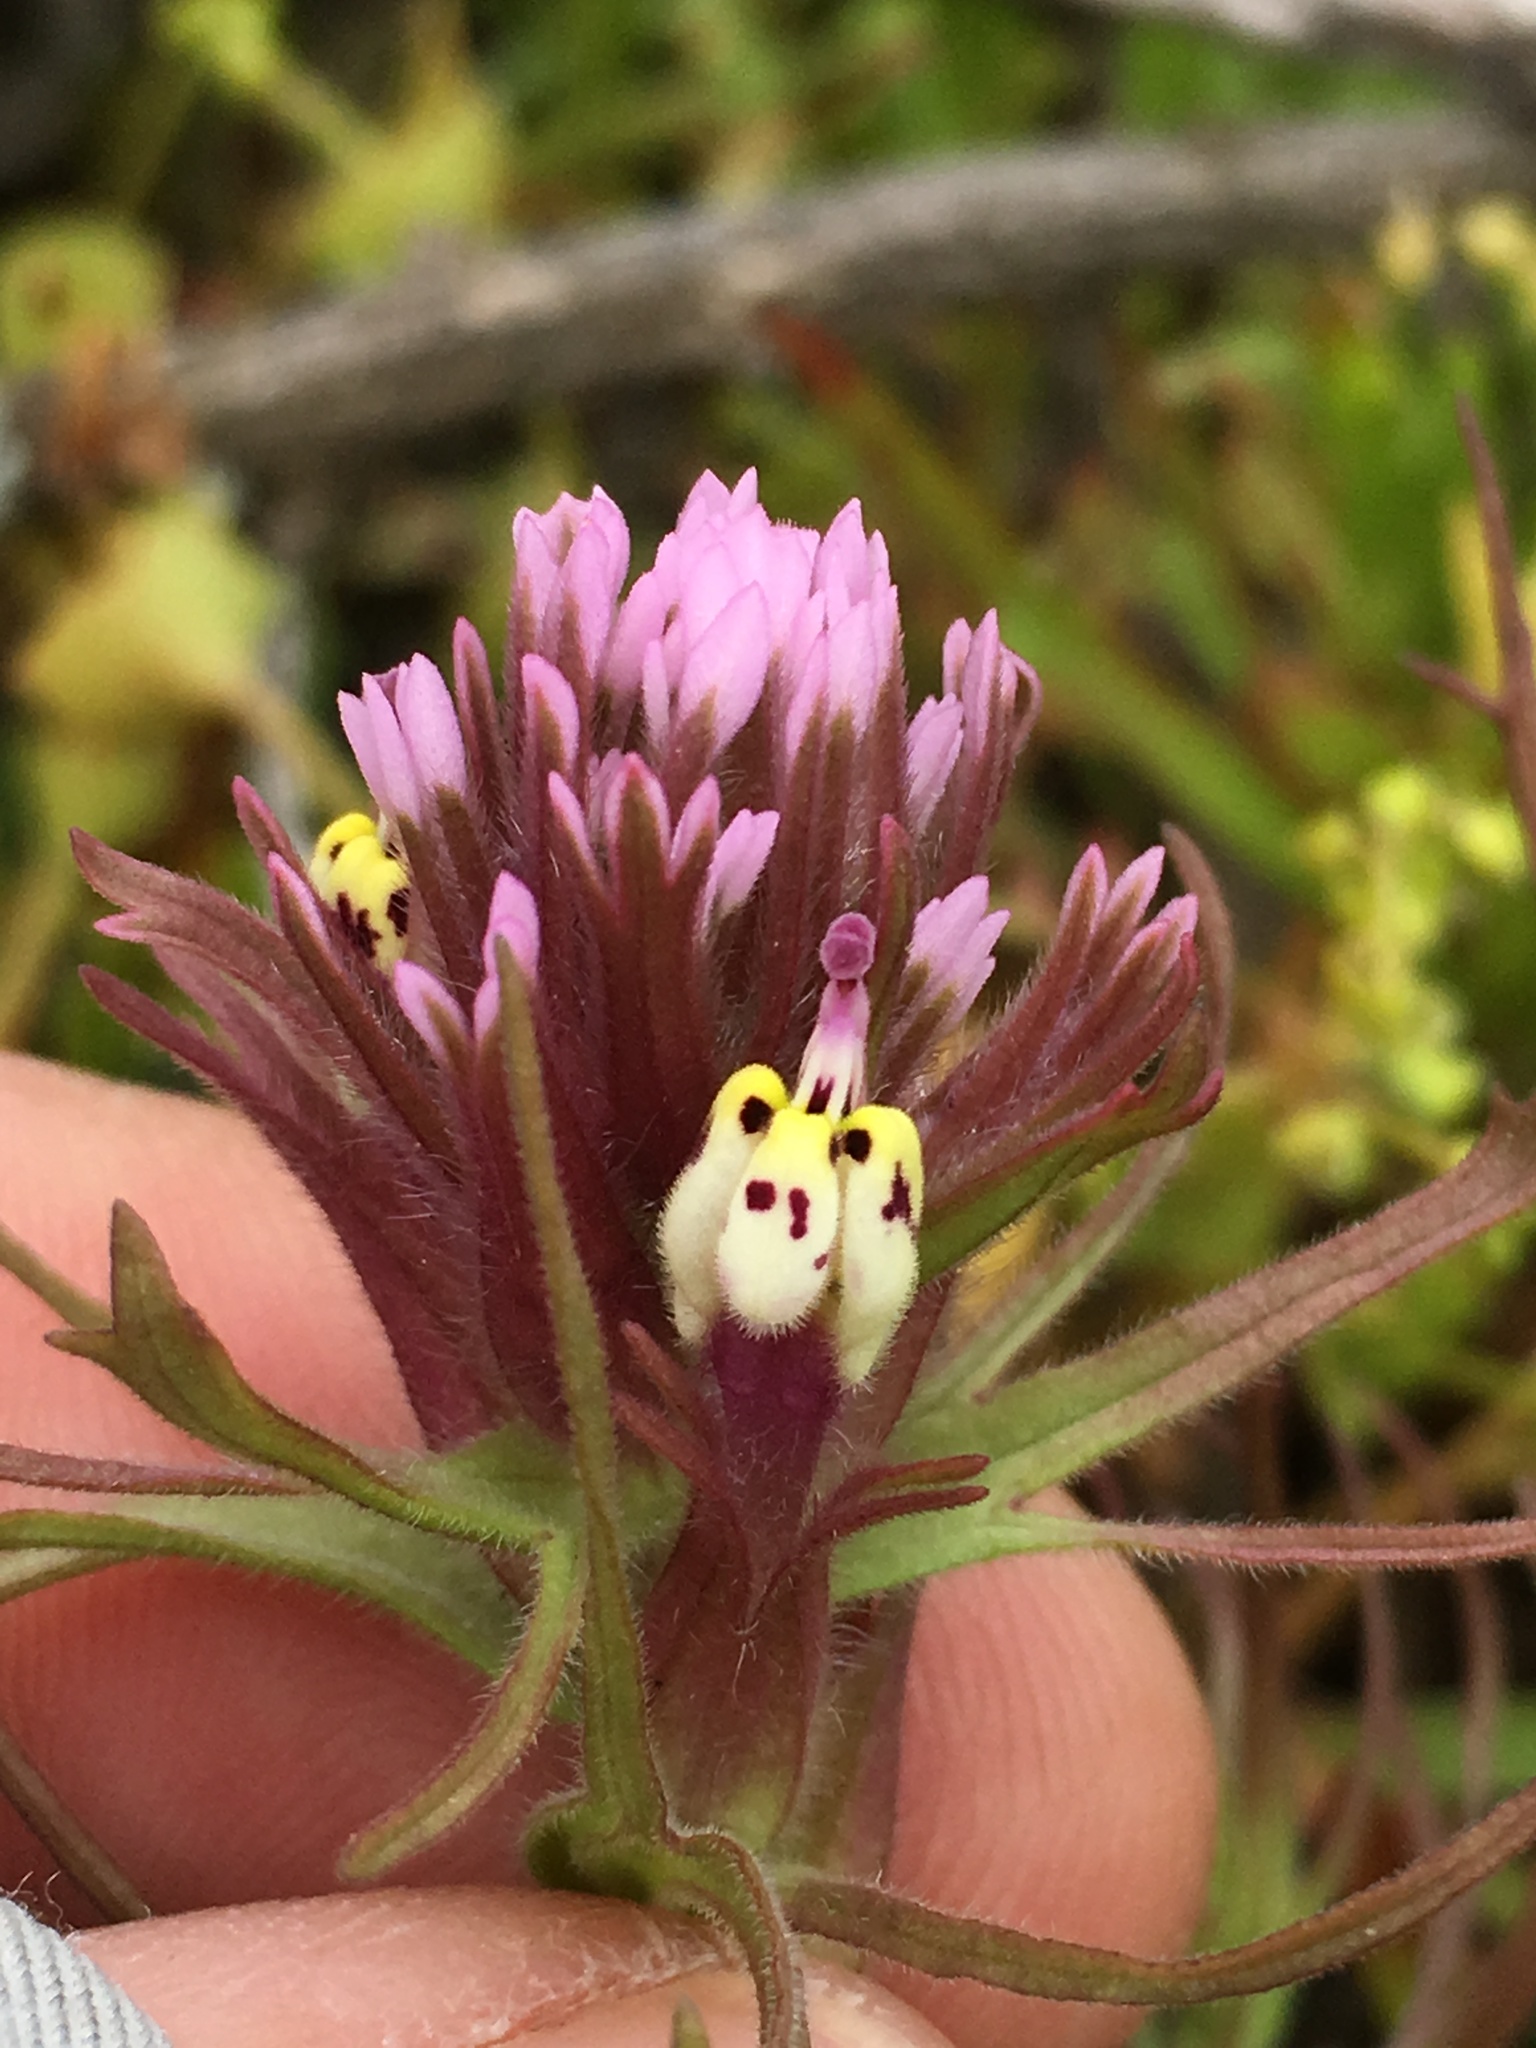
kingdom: Plantae
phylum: Tracheophyta
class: Magnoliopsida
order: Lamiales
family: Orobanchaceae
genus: Castilleja
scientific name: Castilleja densiflora
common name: Dense-flower indian paintbrush
